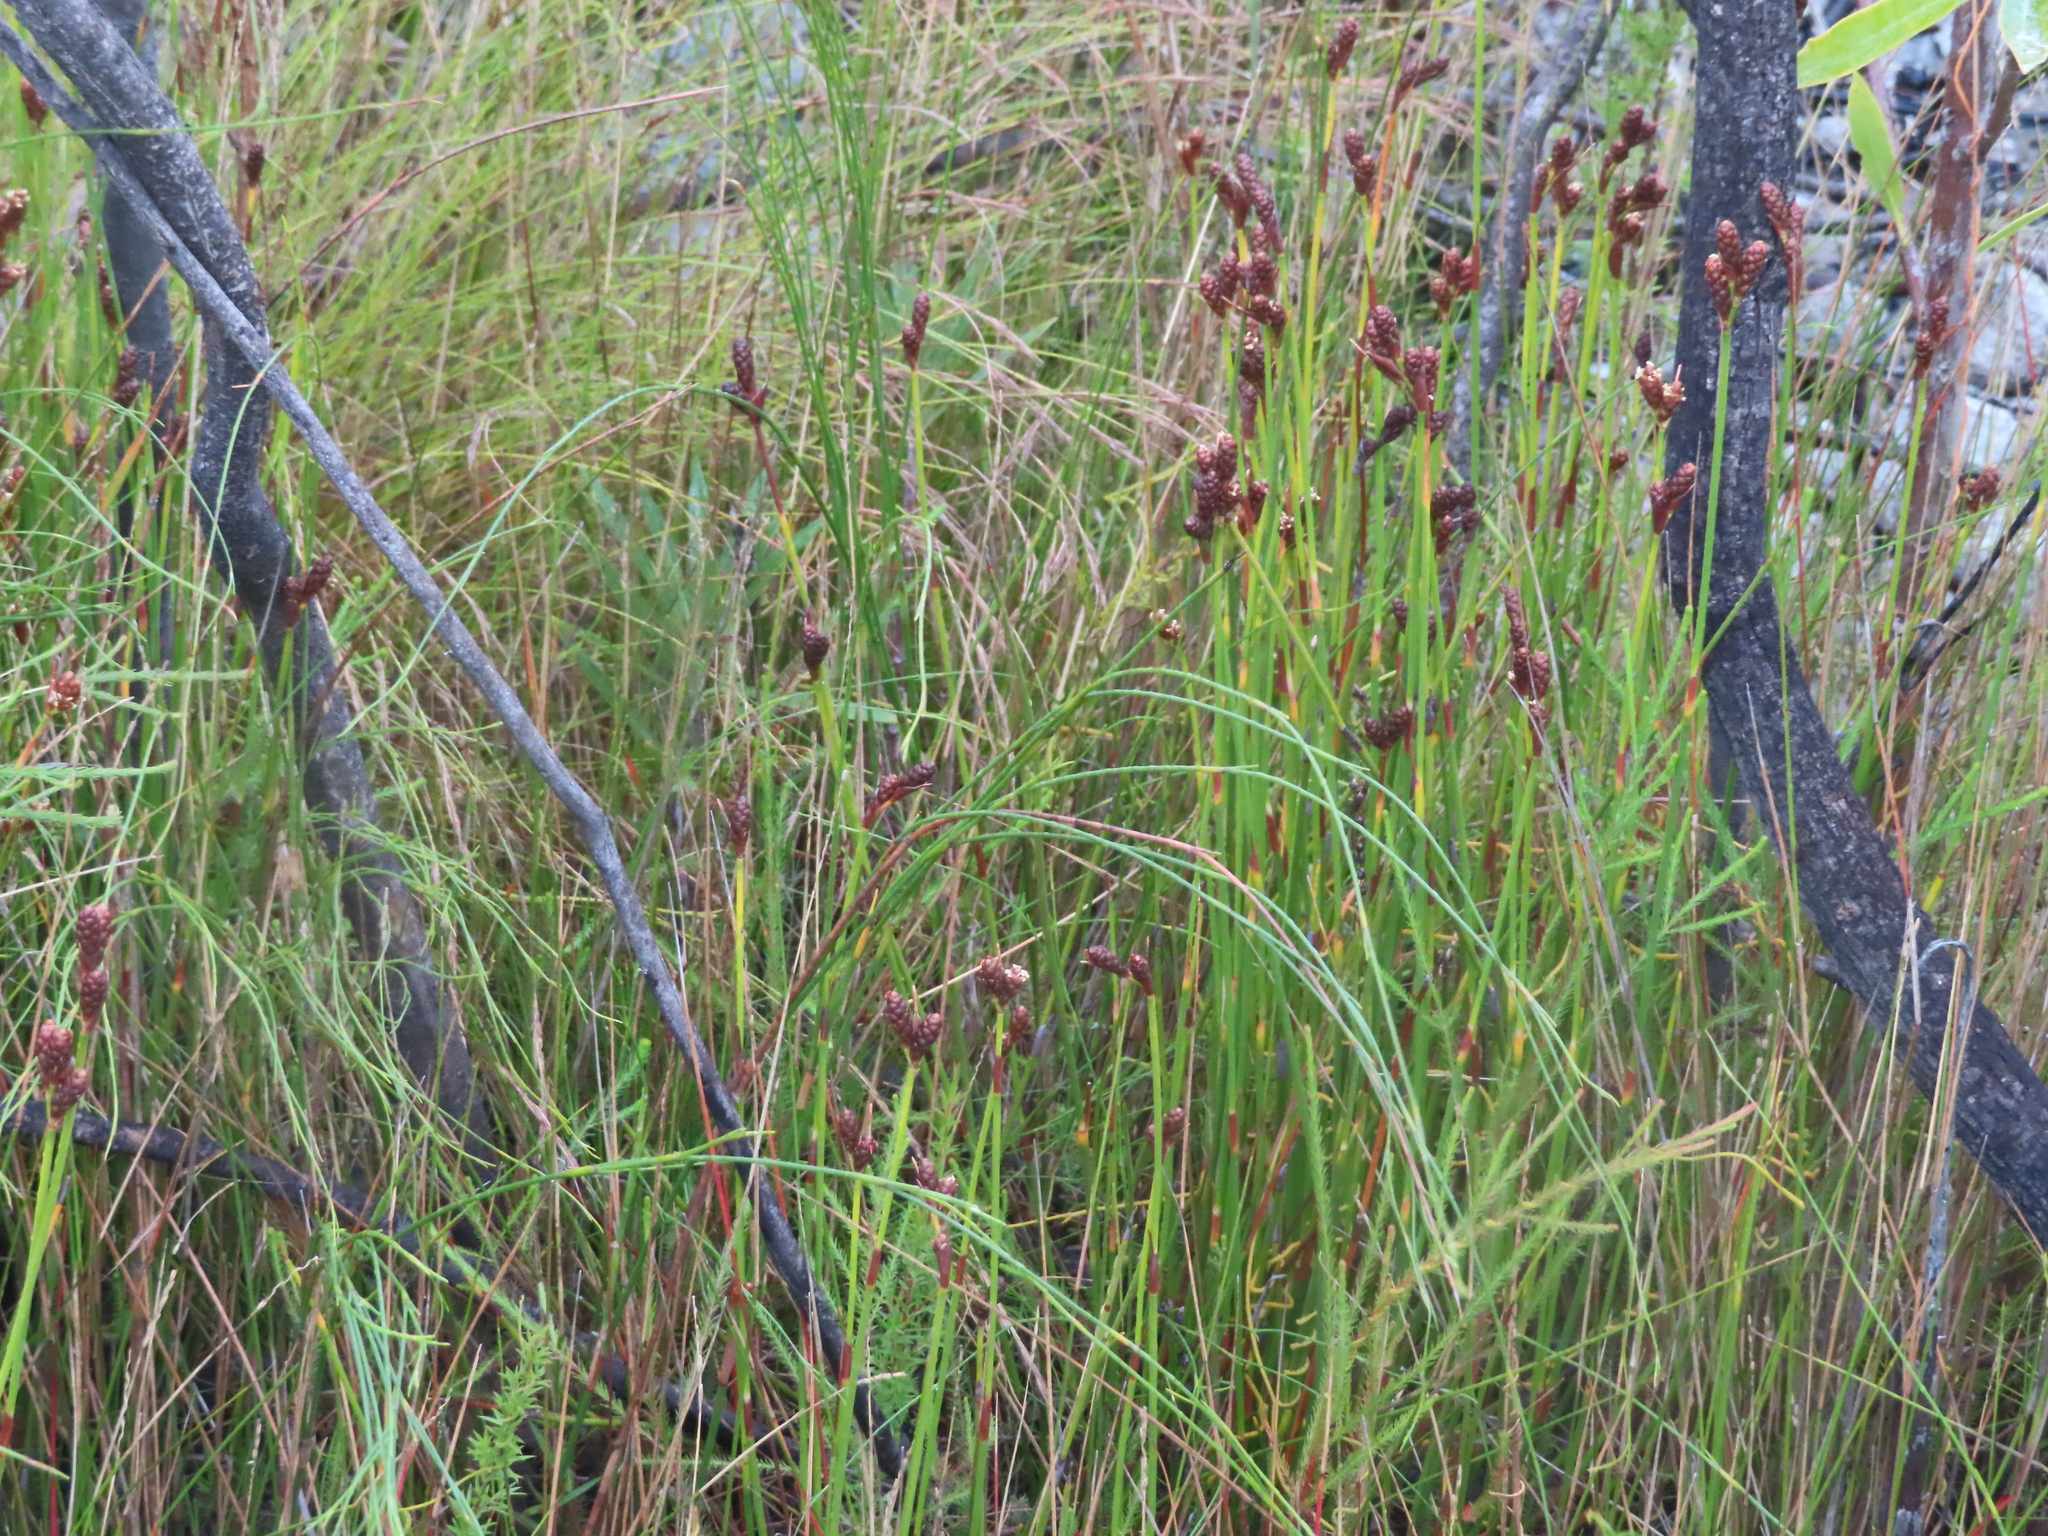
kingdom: Plantae
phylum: Tracheophyta
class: Liliopsida
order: Poales
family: Restionaceae
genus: Nevillea
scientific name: Nevillea obtusissimus
